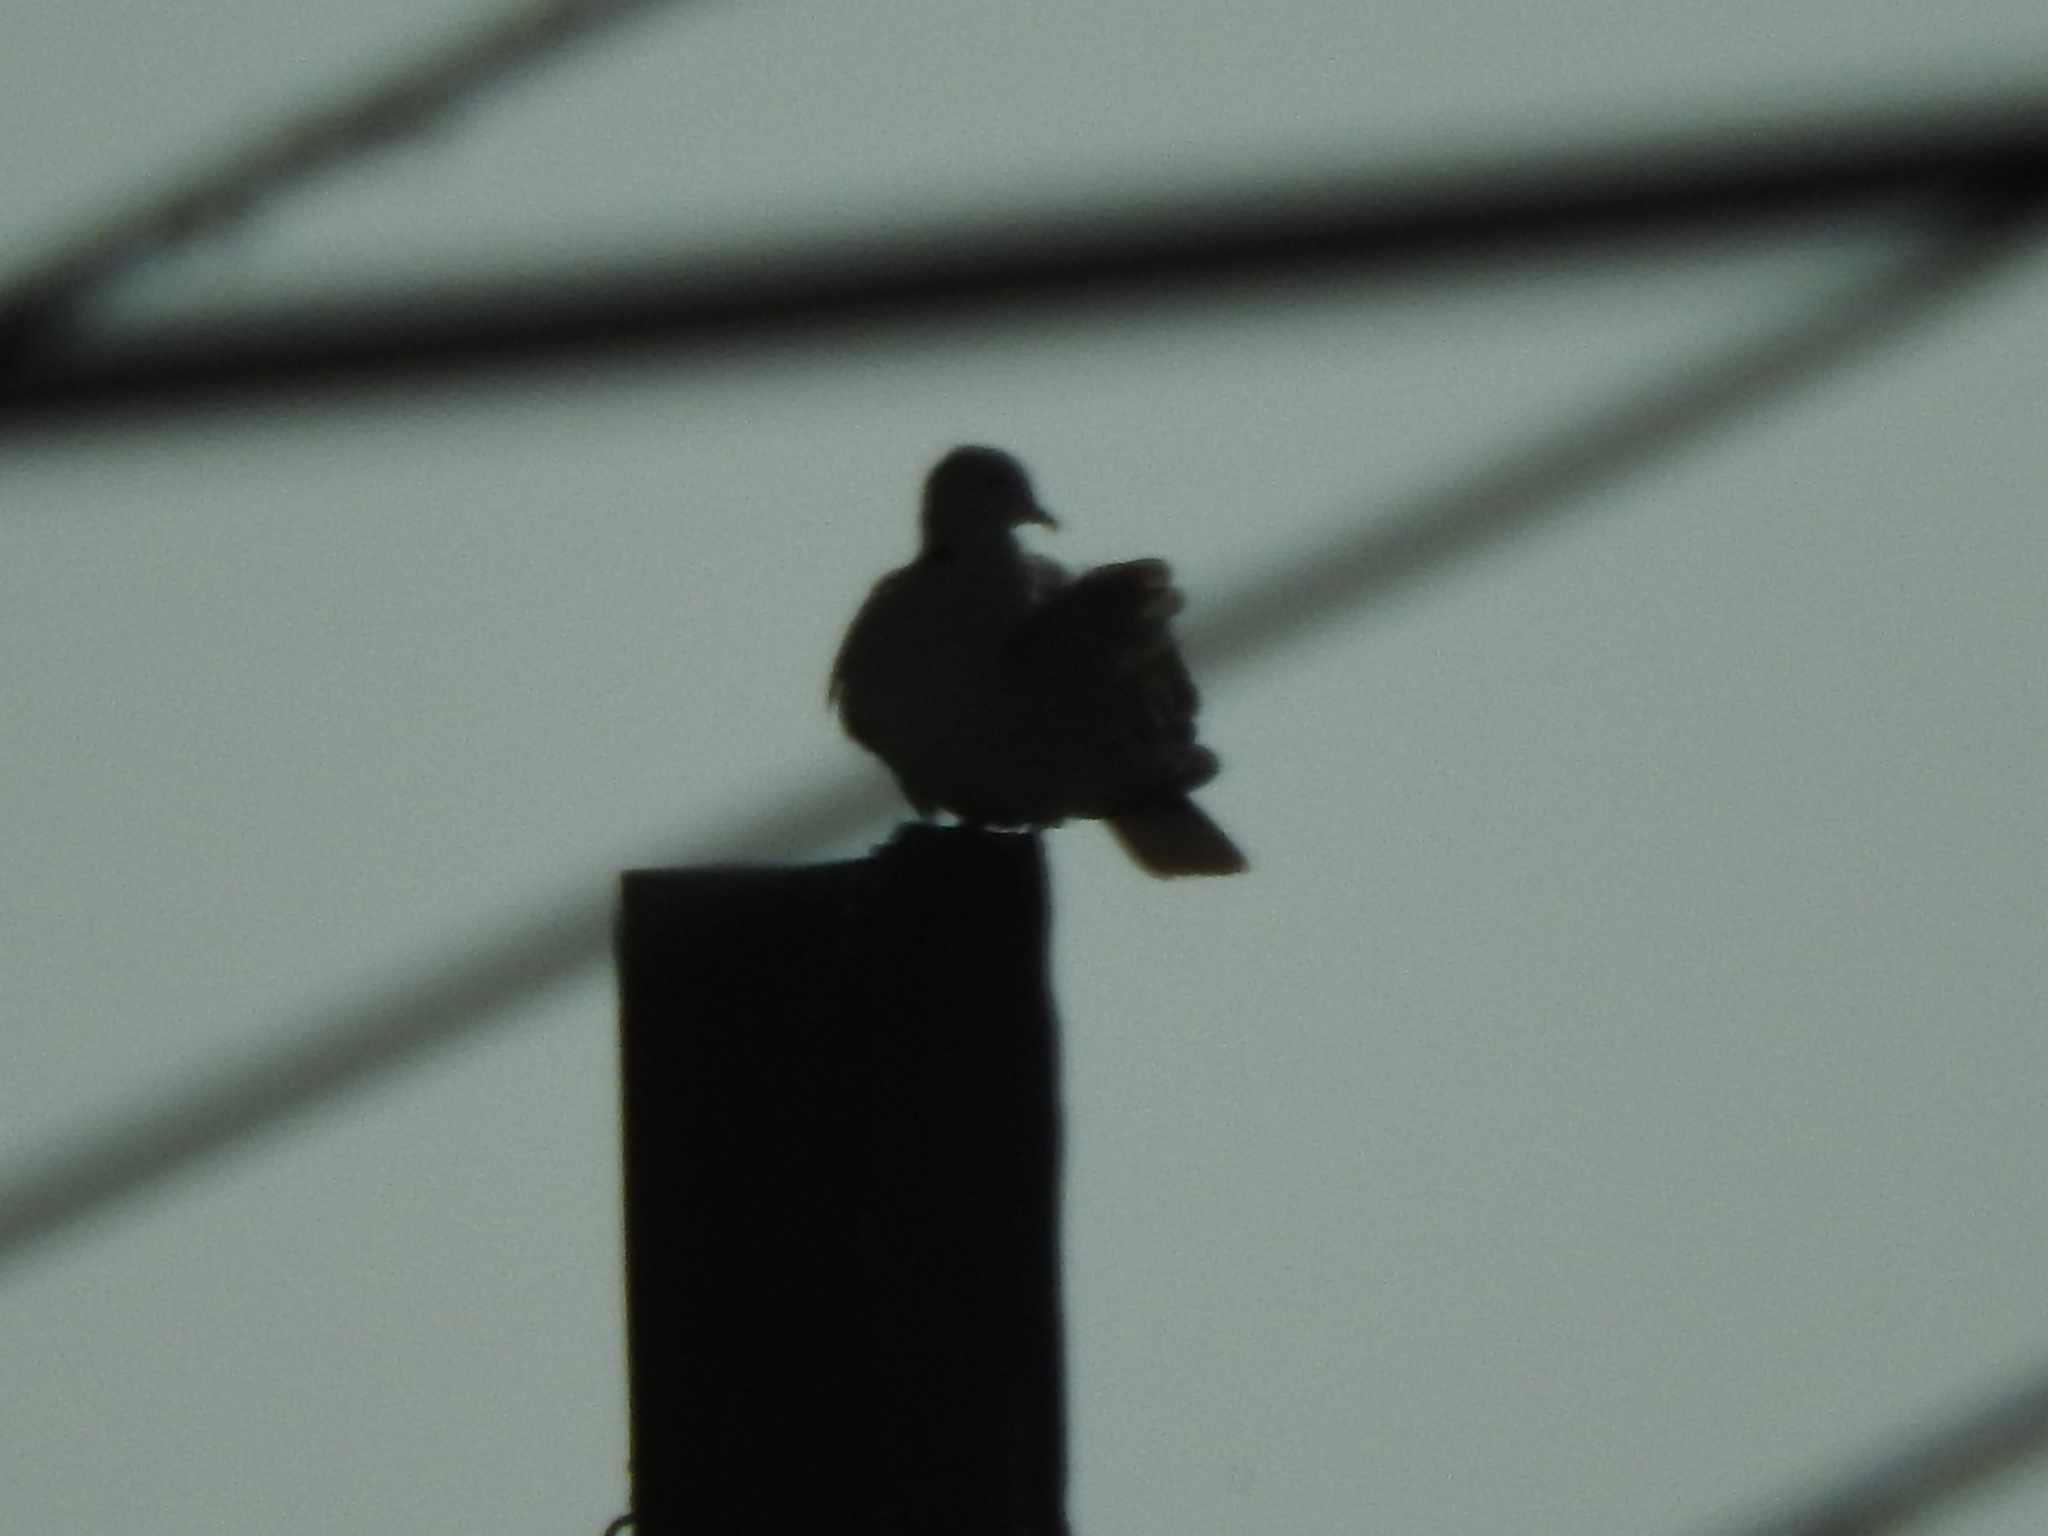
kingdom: Animalia
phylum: Chordata
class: Aves
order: Columbiformes
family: Columbidae
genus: Zenaida
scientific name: Zenaida asiatica
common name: White-winged dove
